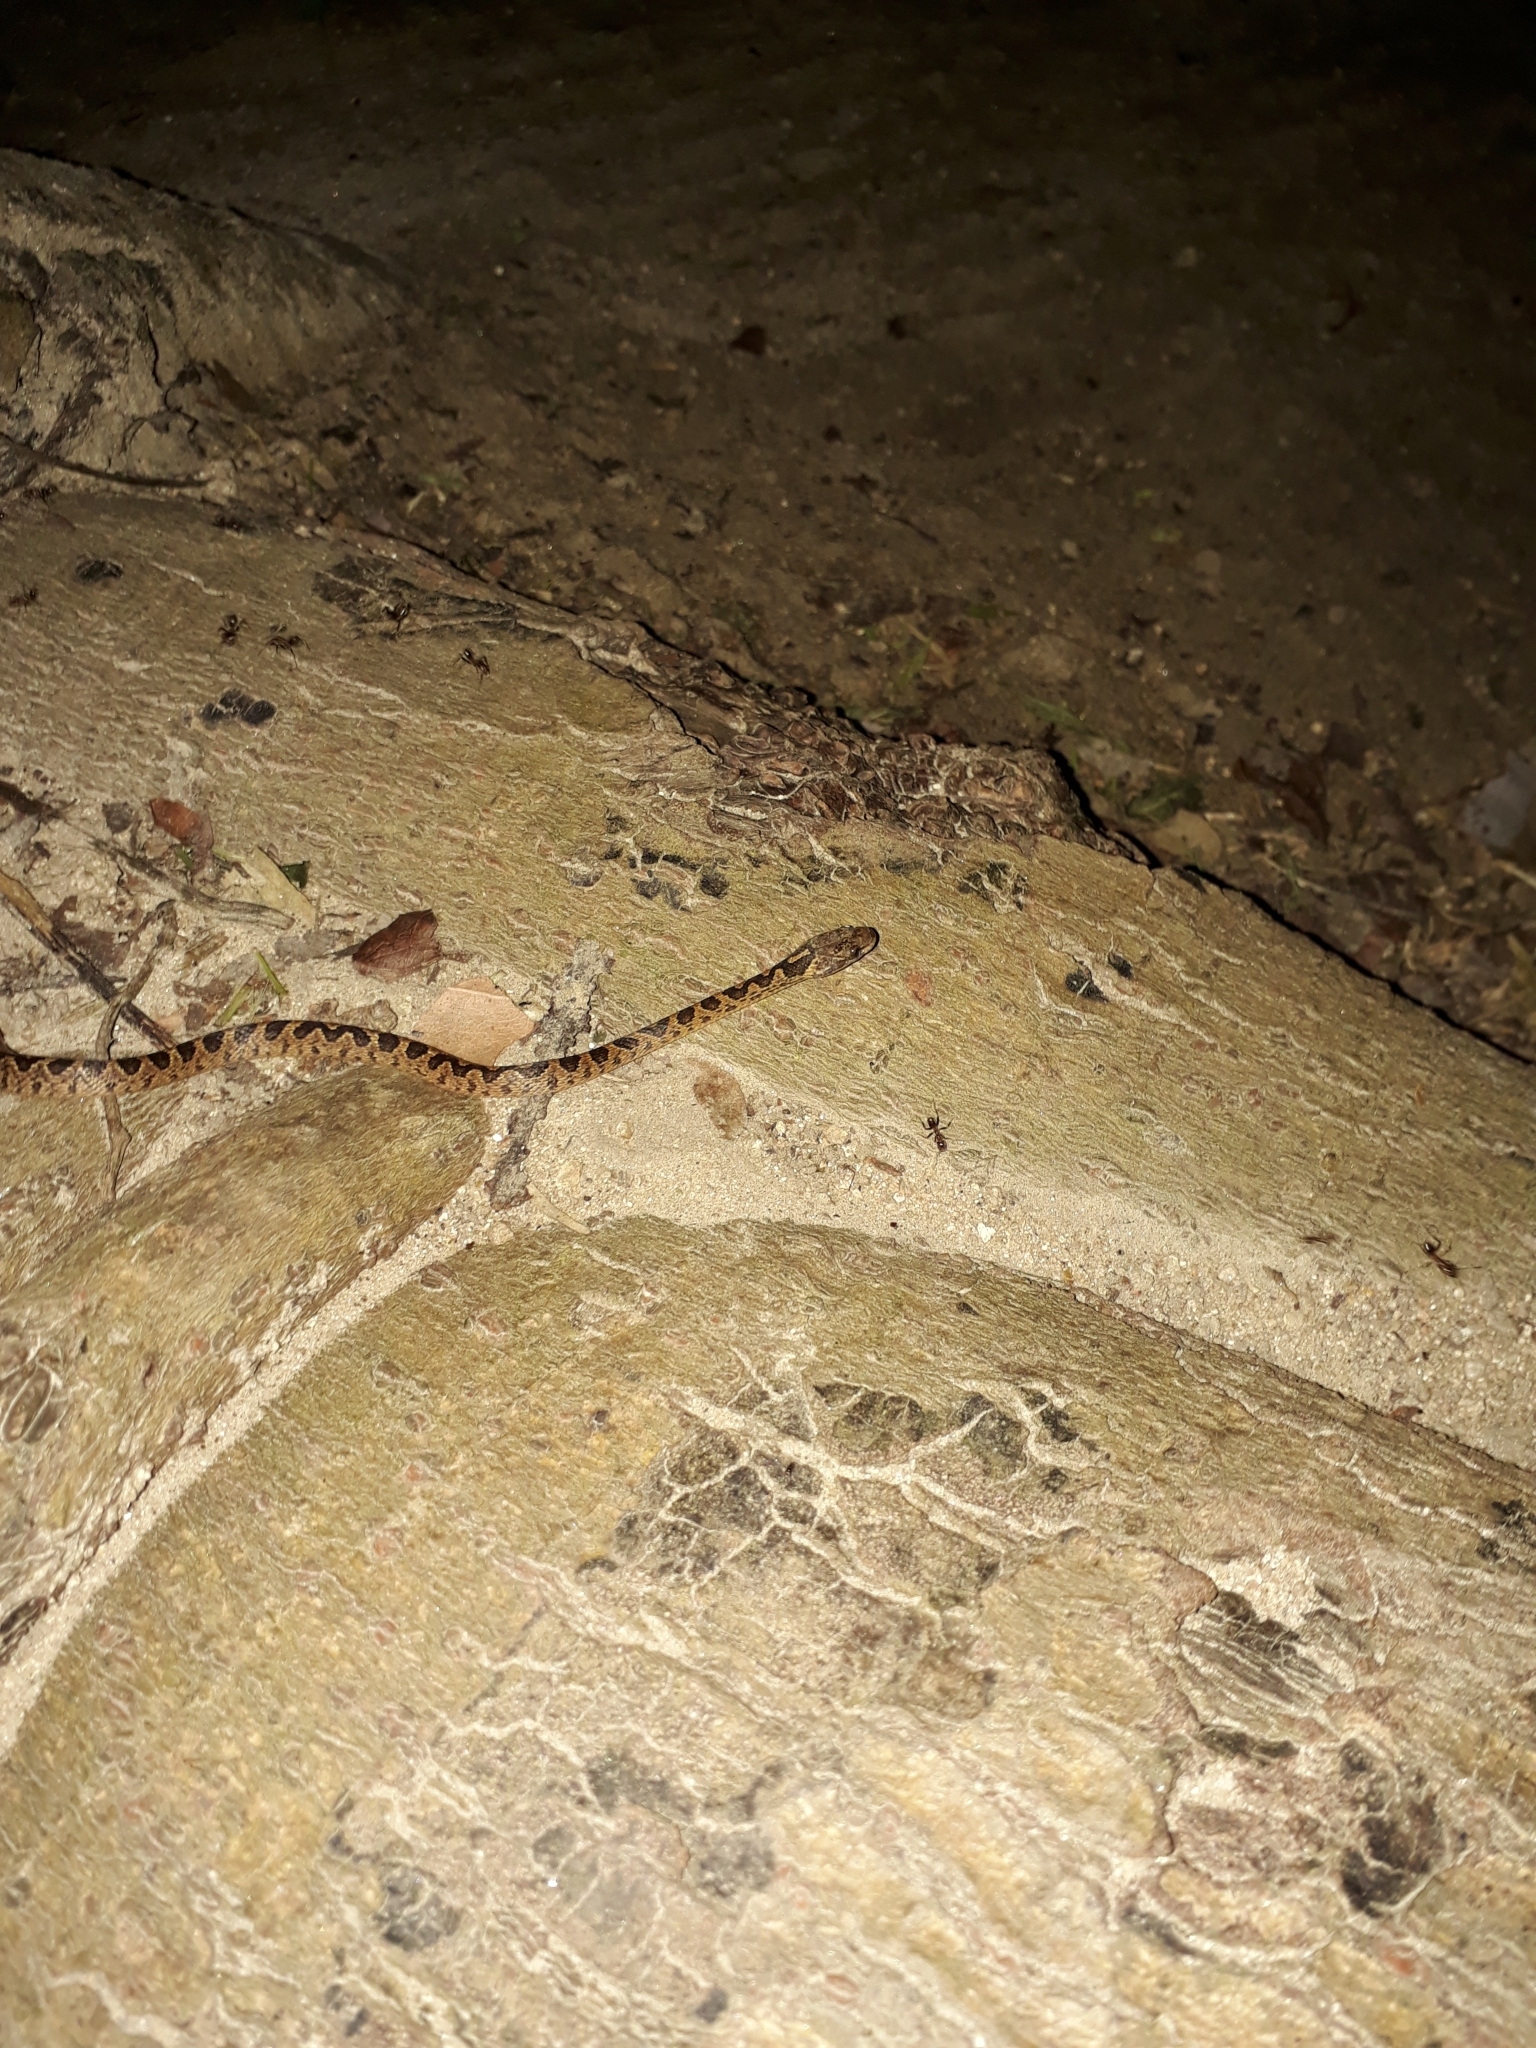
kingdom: Animalia
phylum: Chordata
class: Squamata
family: Colubridae
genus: Leptodeira
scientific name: Leptodeira ashmeadii
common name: Banded cat-eyed snake
